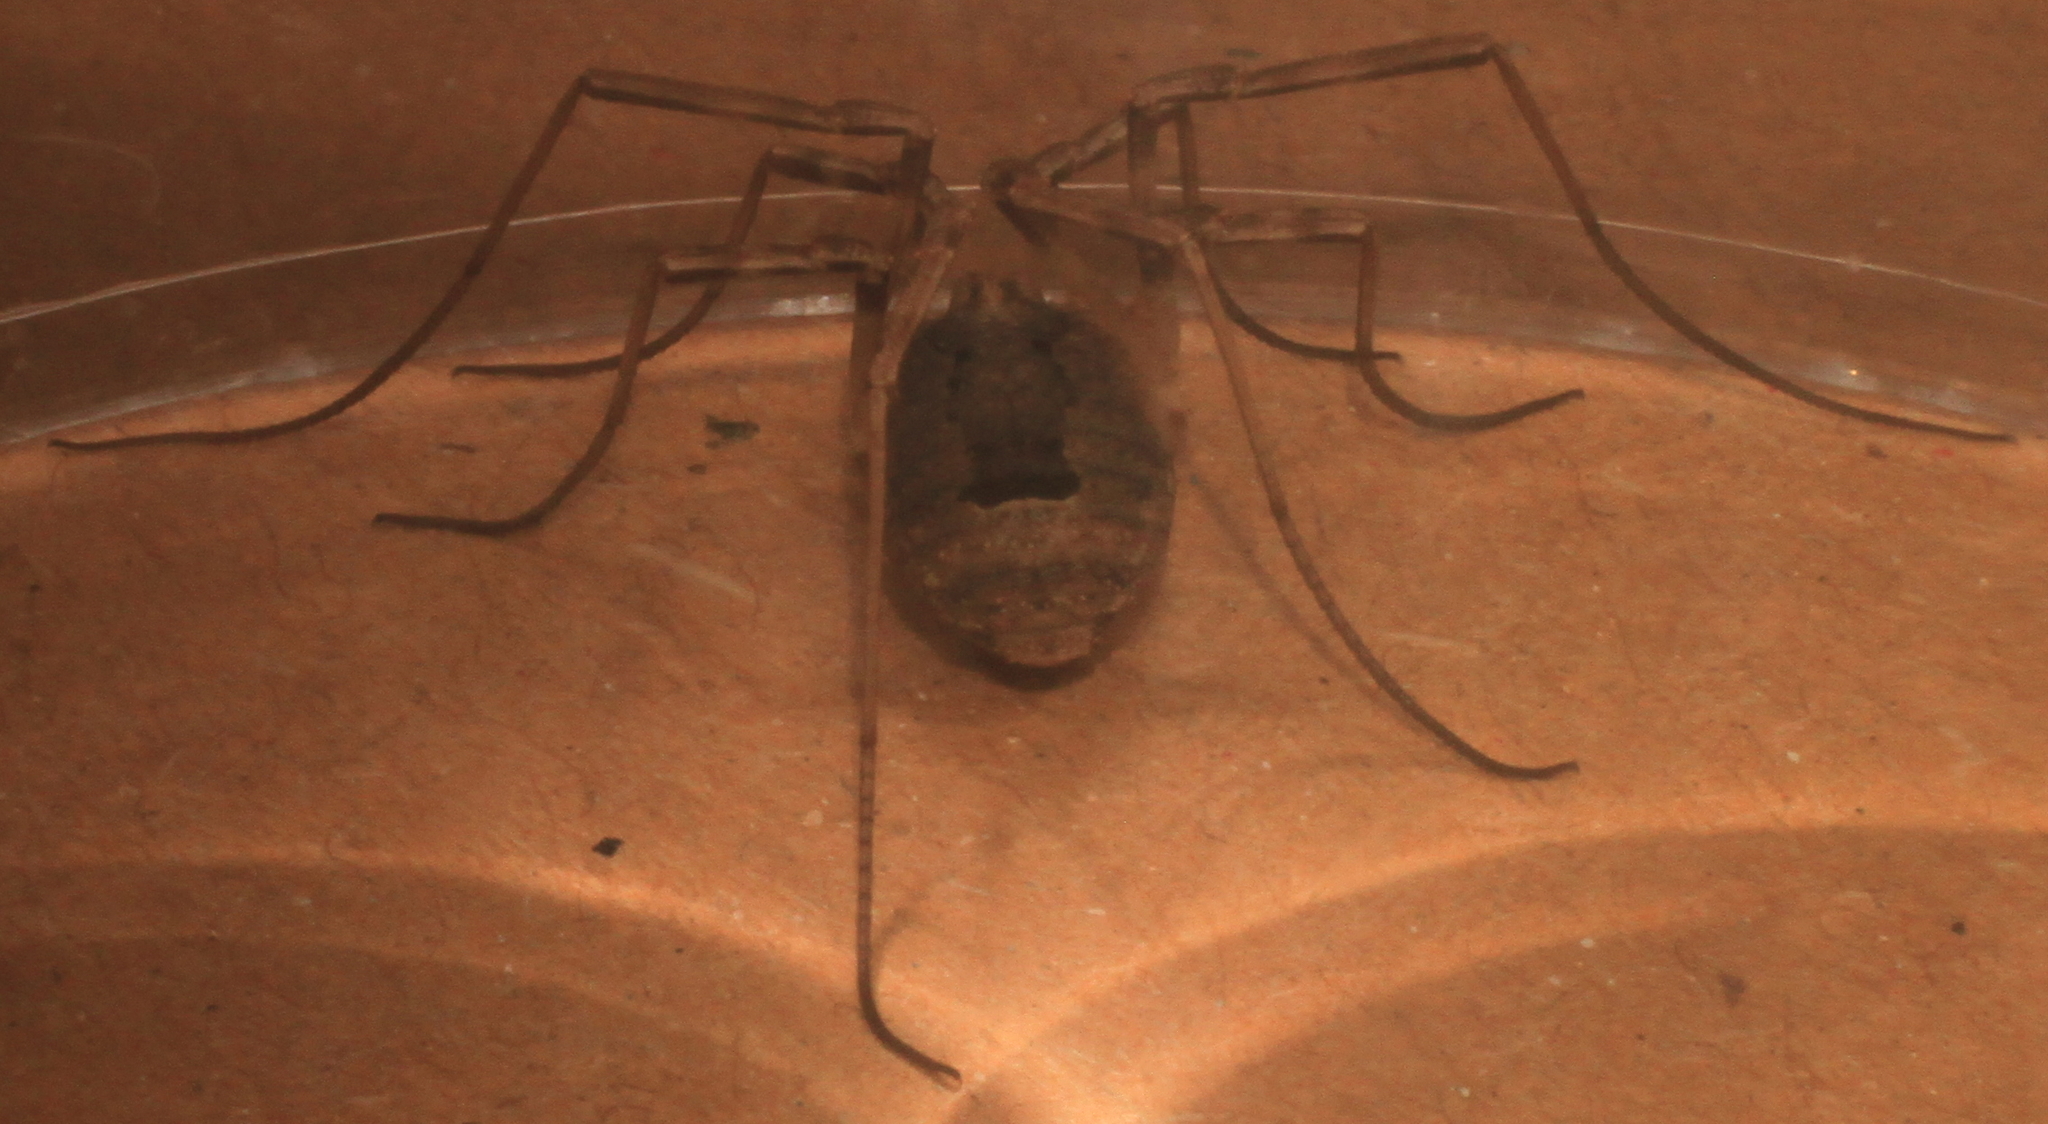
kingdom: Animalia
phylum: Arthropoda
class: Arachnida
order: Opiliones
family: Phalangiidae
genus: Odiellus
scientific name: Odiellus spinosus
